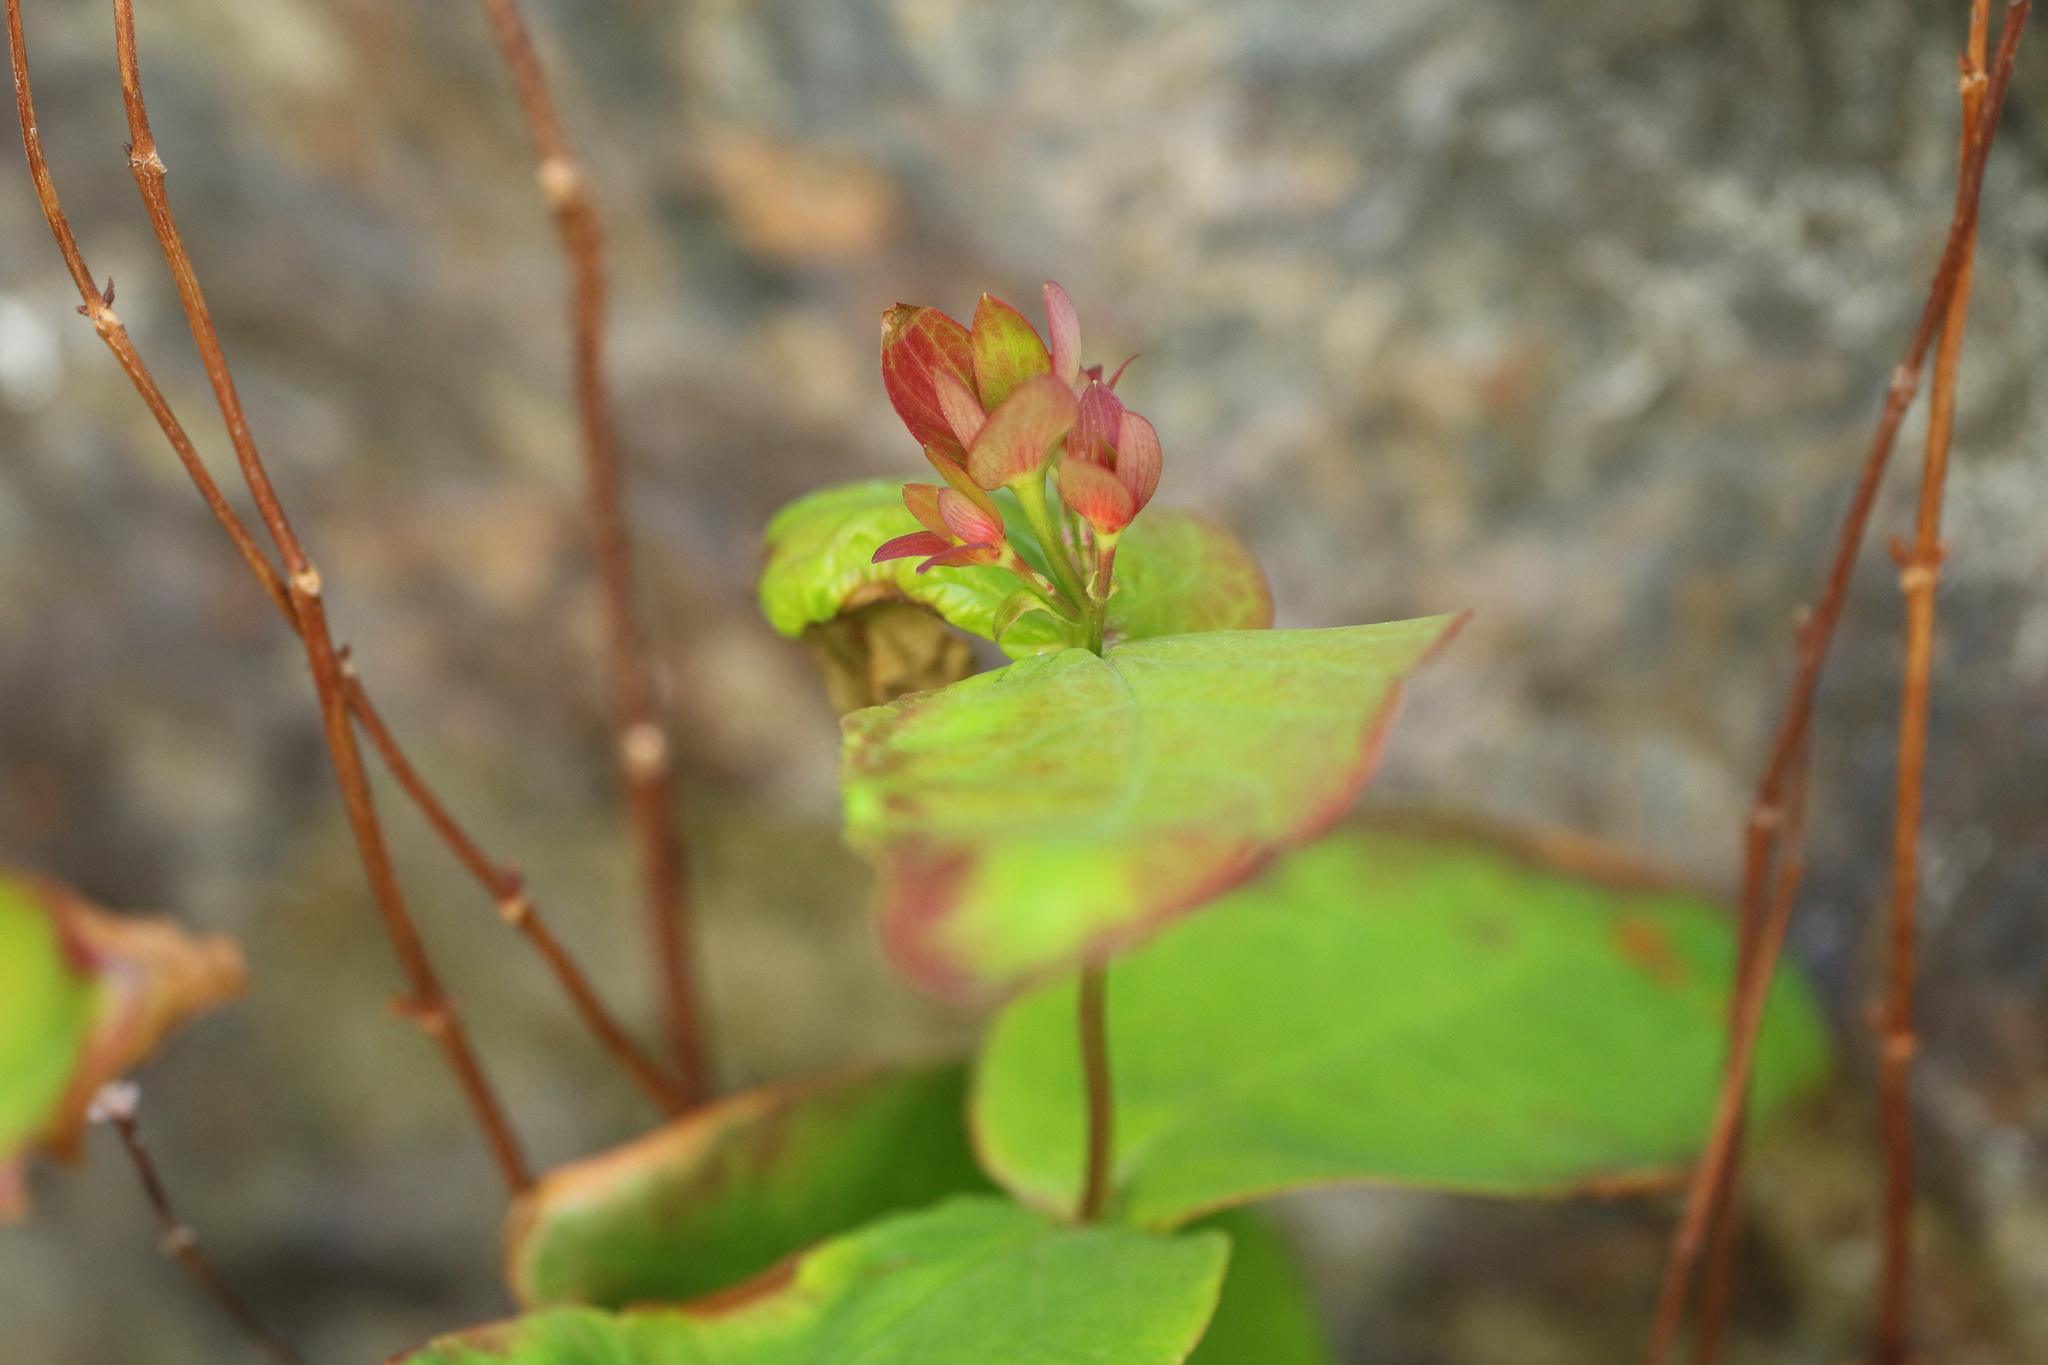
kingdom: Plantae
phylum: Tracheophyta
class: Magnoliopsida
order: Malpighiales
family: Hypericaceae
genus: Hypericum
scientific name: Hypericum androsaemum
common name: Sweet-amber
